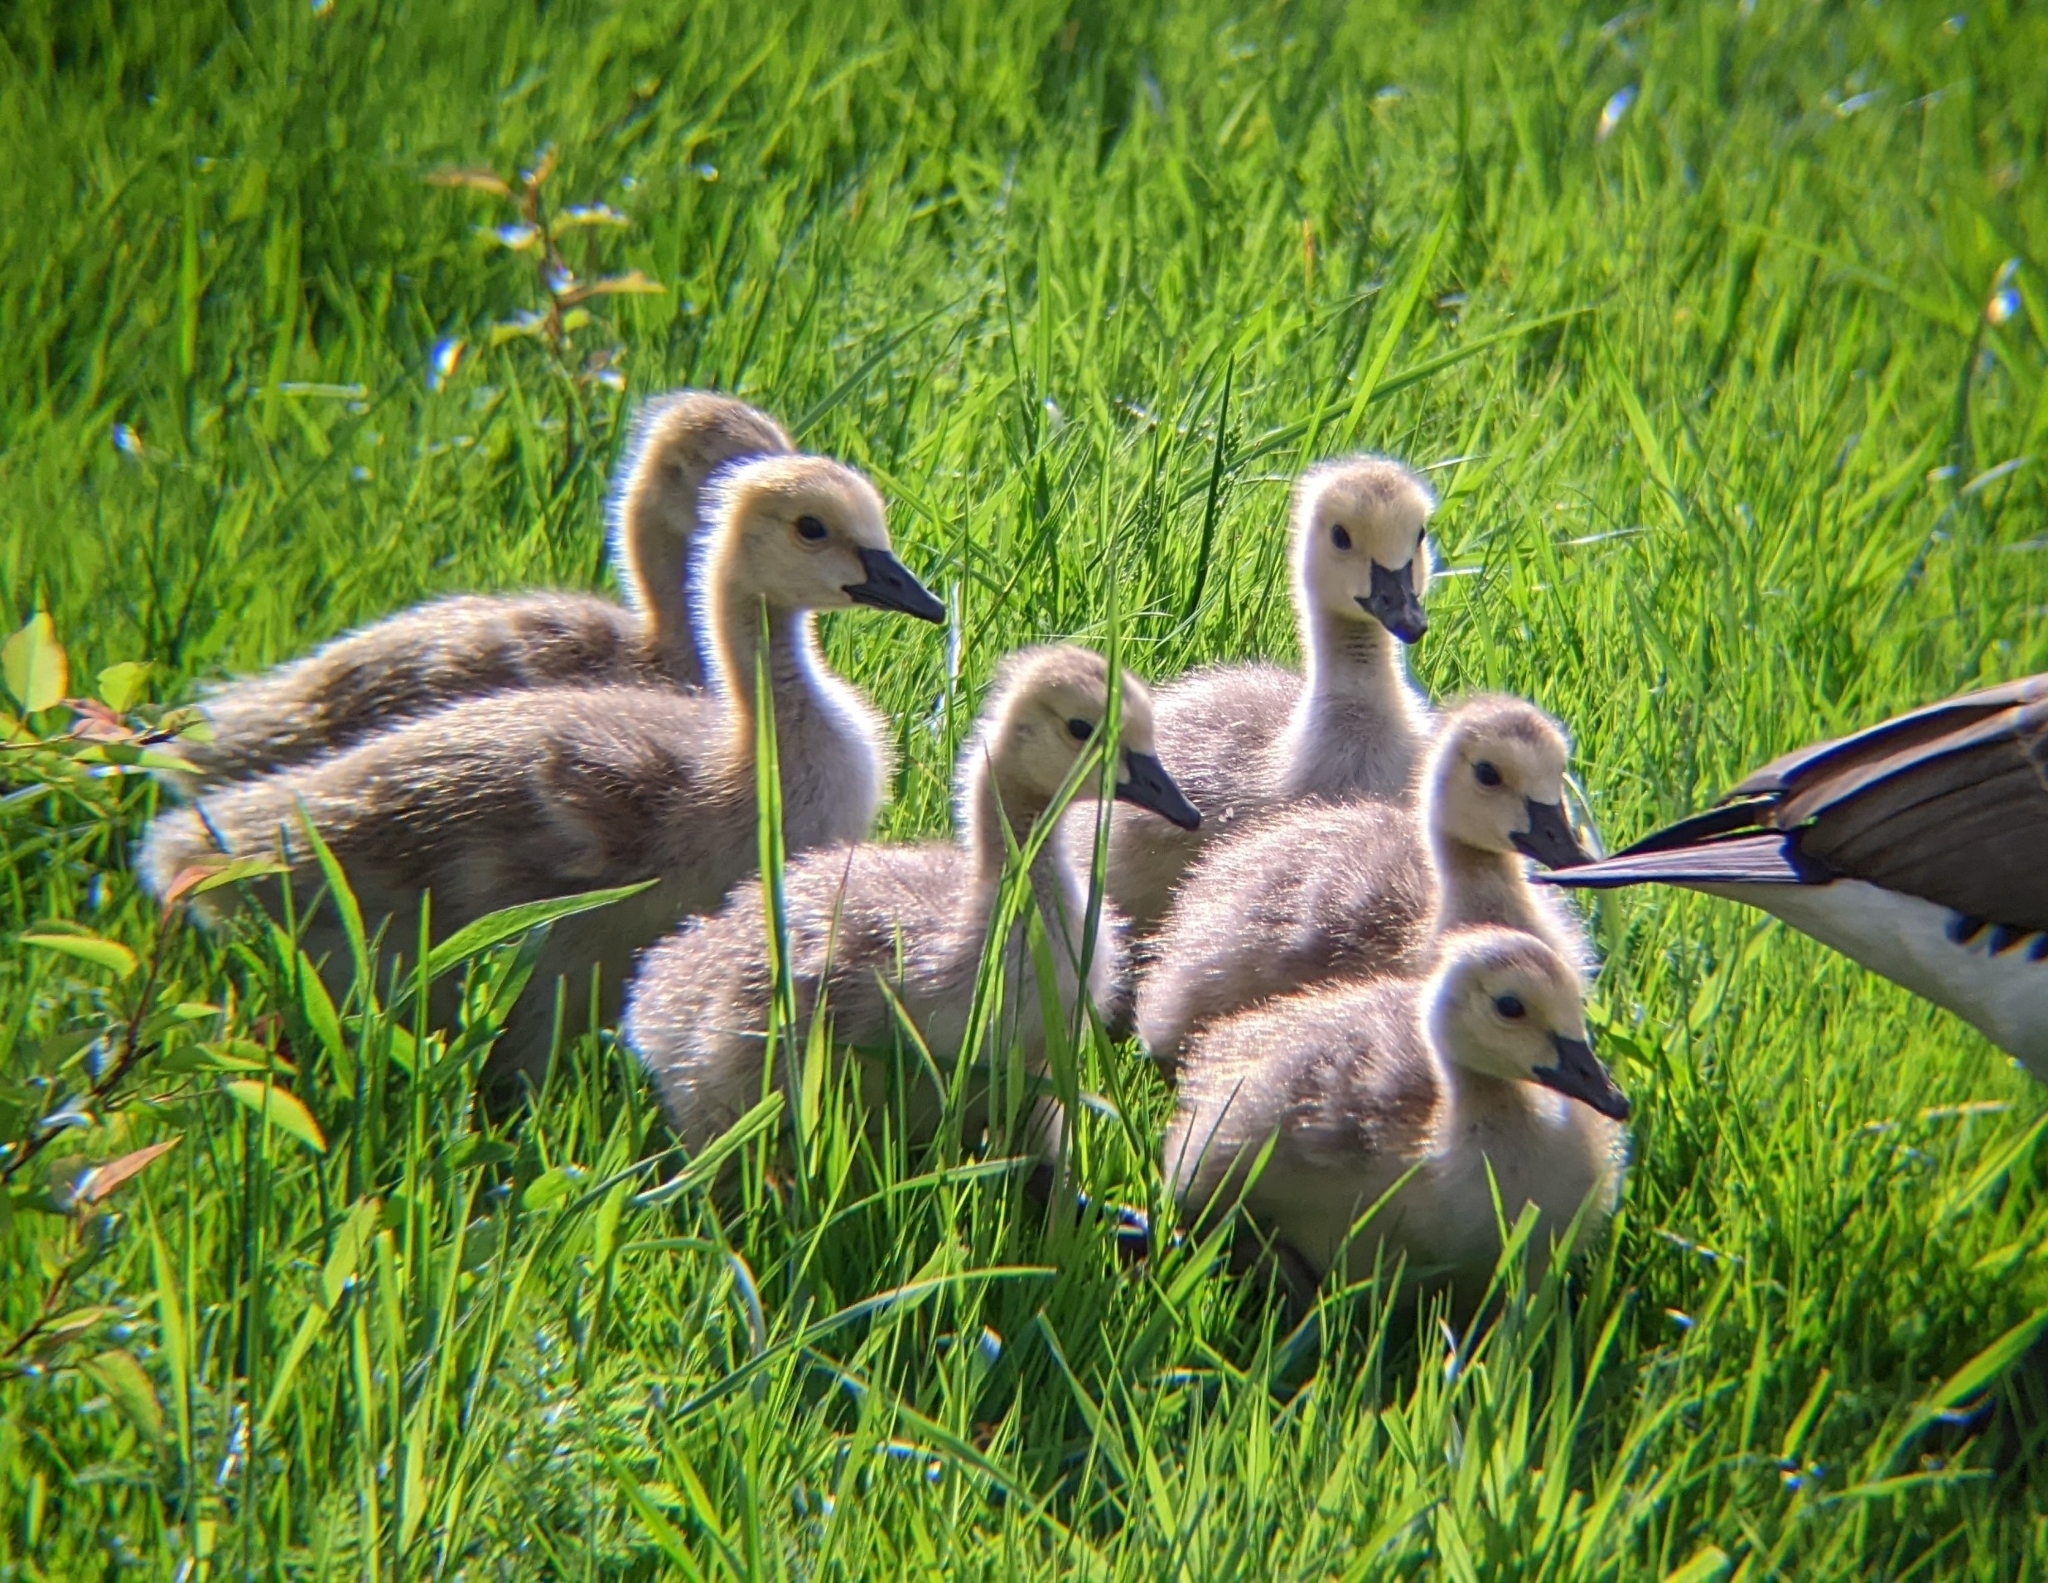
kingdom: Animalia
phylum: Chordata
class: Aves
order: Anseriformes
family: Anatidae
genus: Branta
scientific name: Branta canadensis
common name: Canada goose
